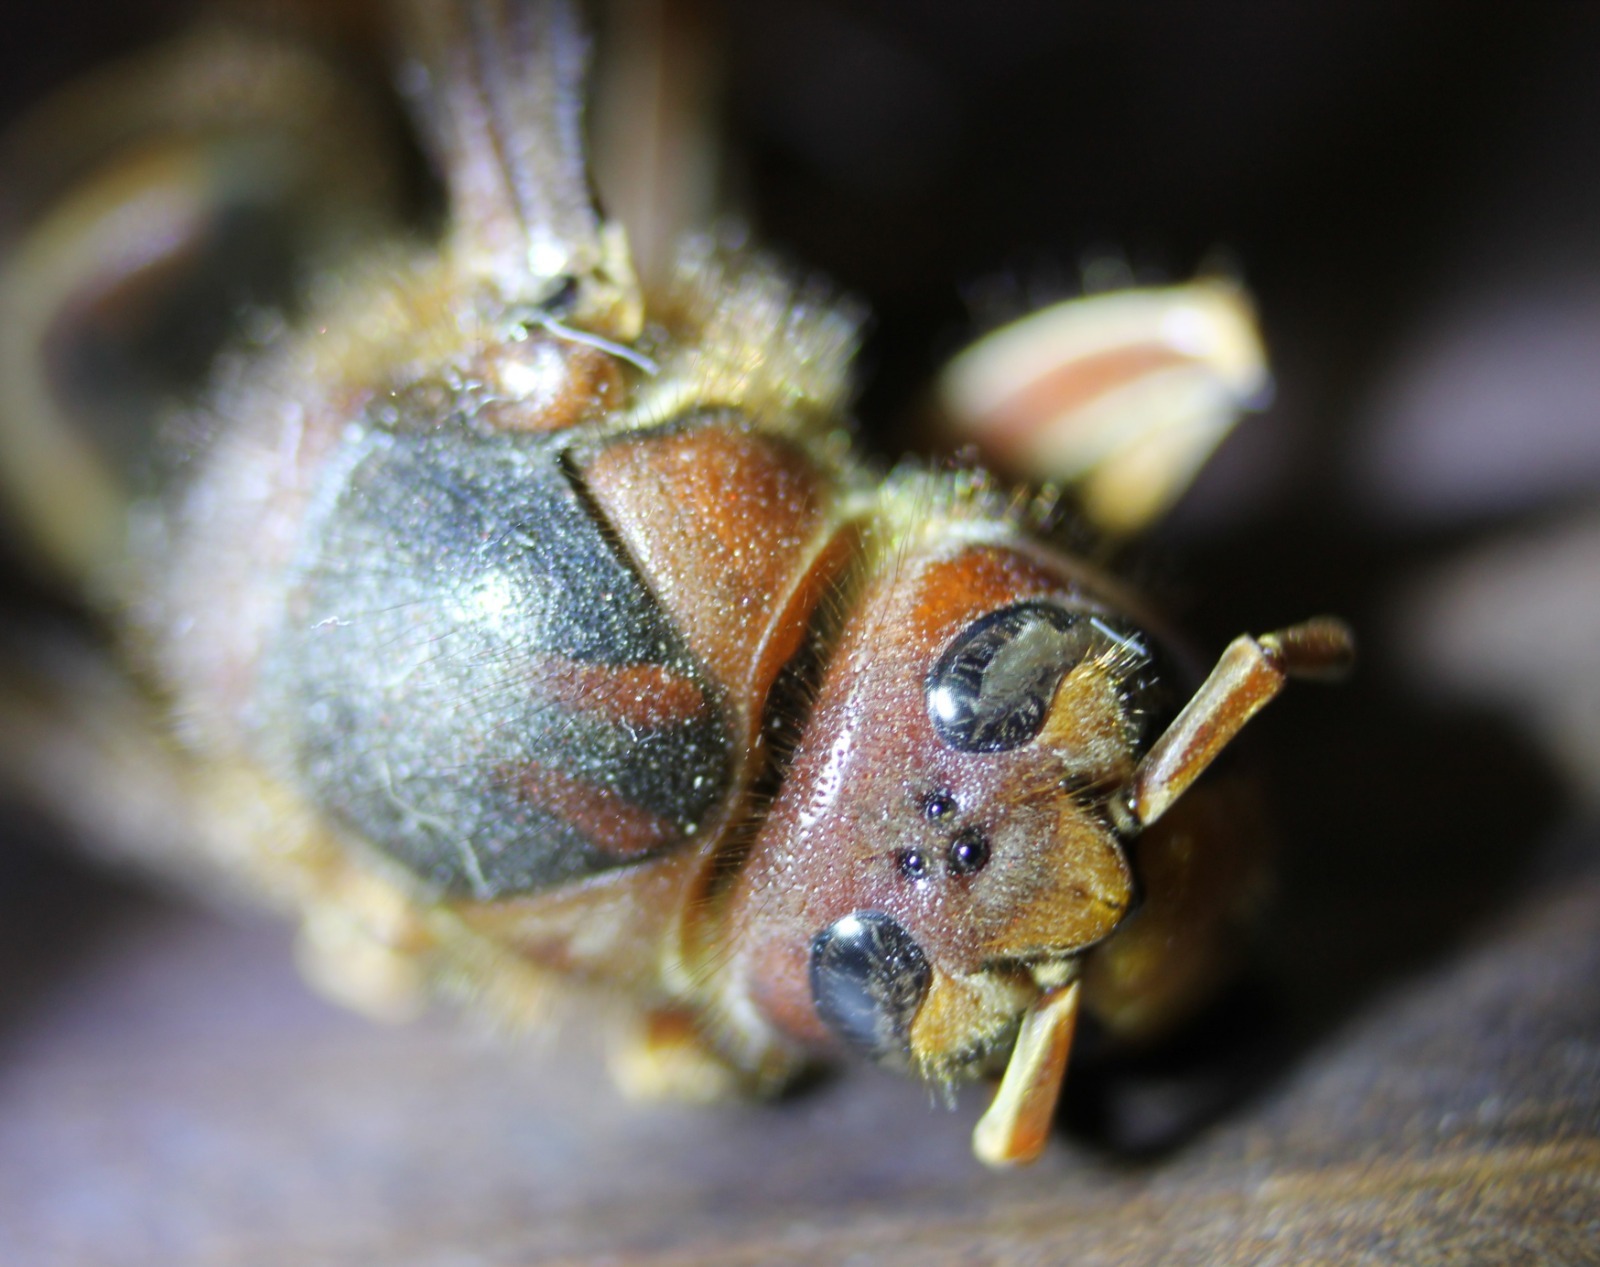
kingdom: Animalia
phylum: Arthropoda
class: Insecta
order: Hymenoptera
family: Vespidae
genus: Vespa
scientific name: Vespa crabro
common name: Hornet
